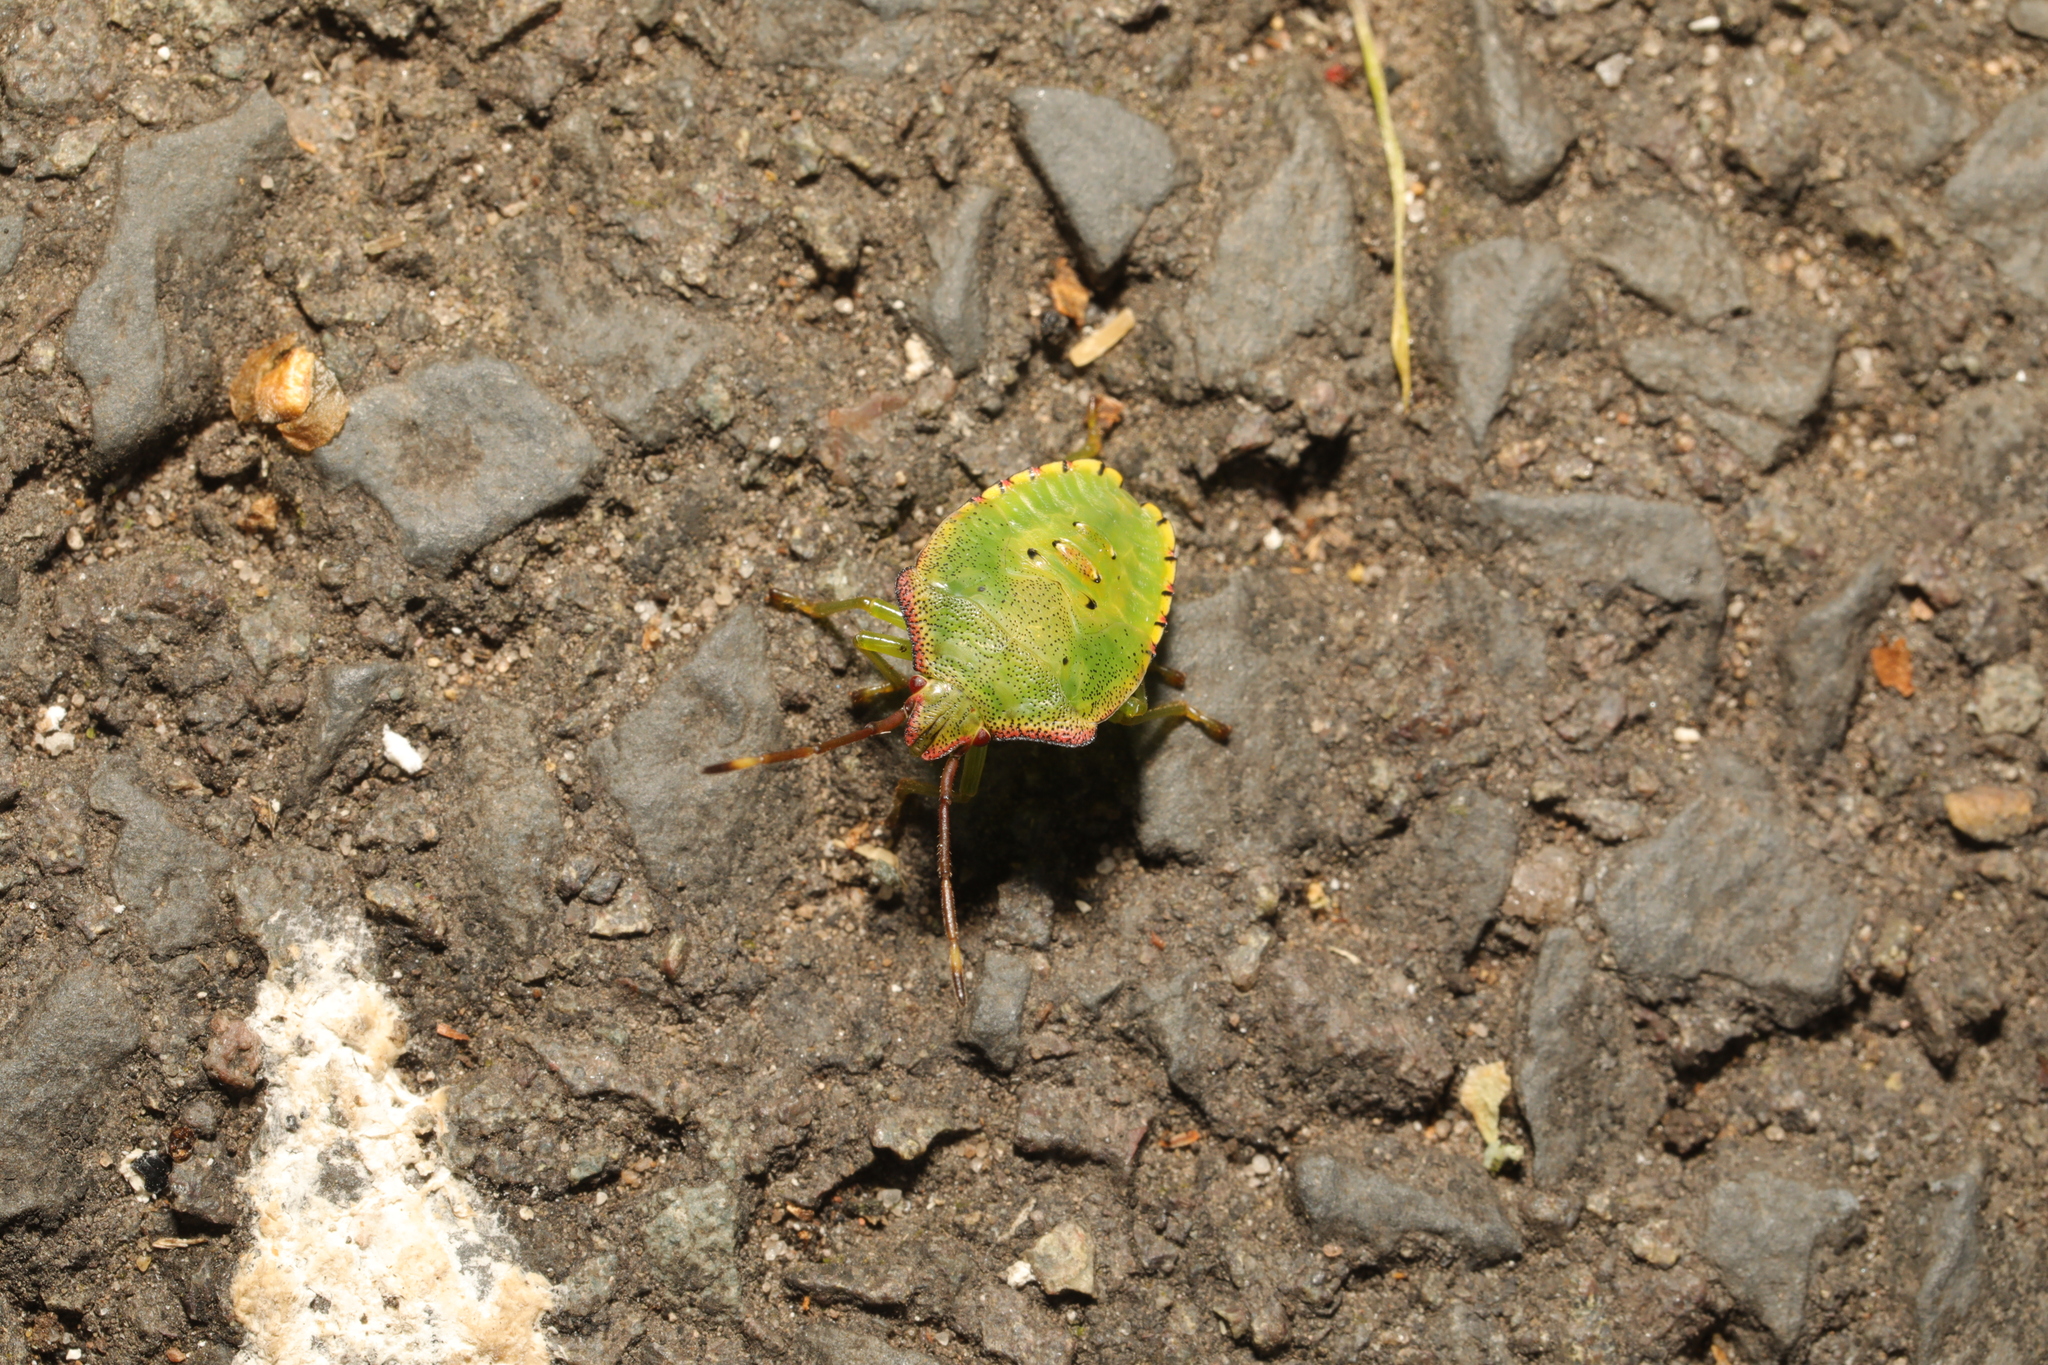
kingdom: Animalia
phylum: Arthropoda
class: Insecta
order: Hemiptera
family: Acanthosomatidae
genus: Acanthosoma
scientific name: Acanthosoma haemorrhoidale
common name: Hawthorn shieldbug
